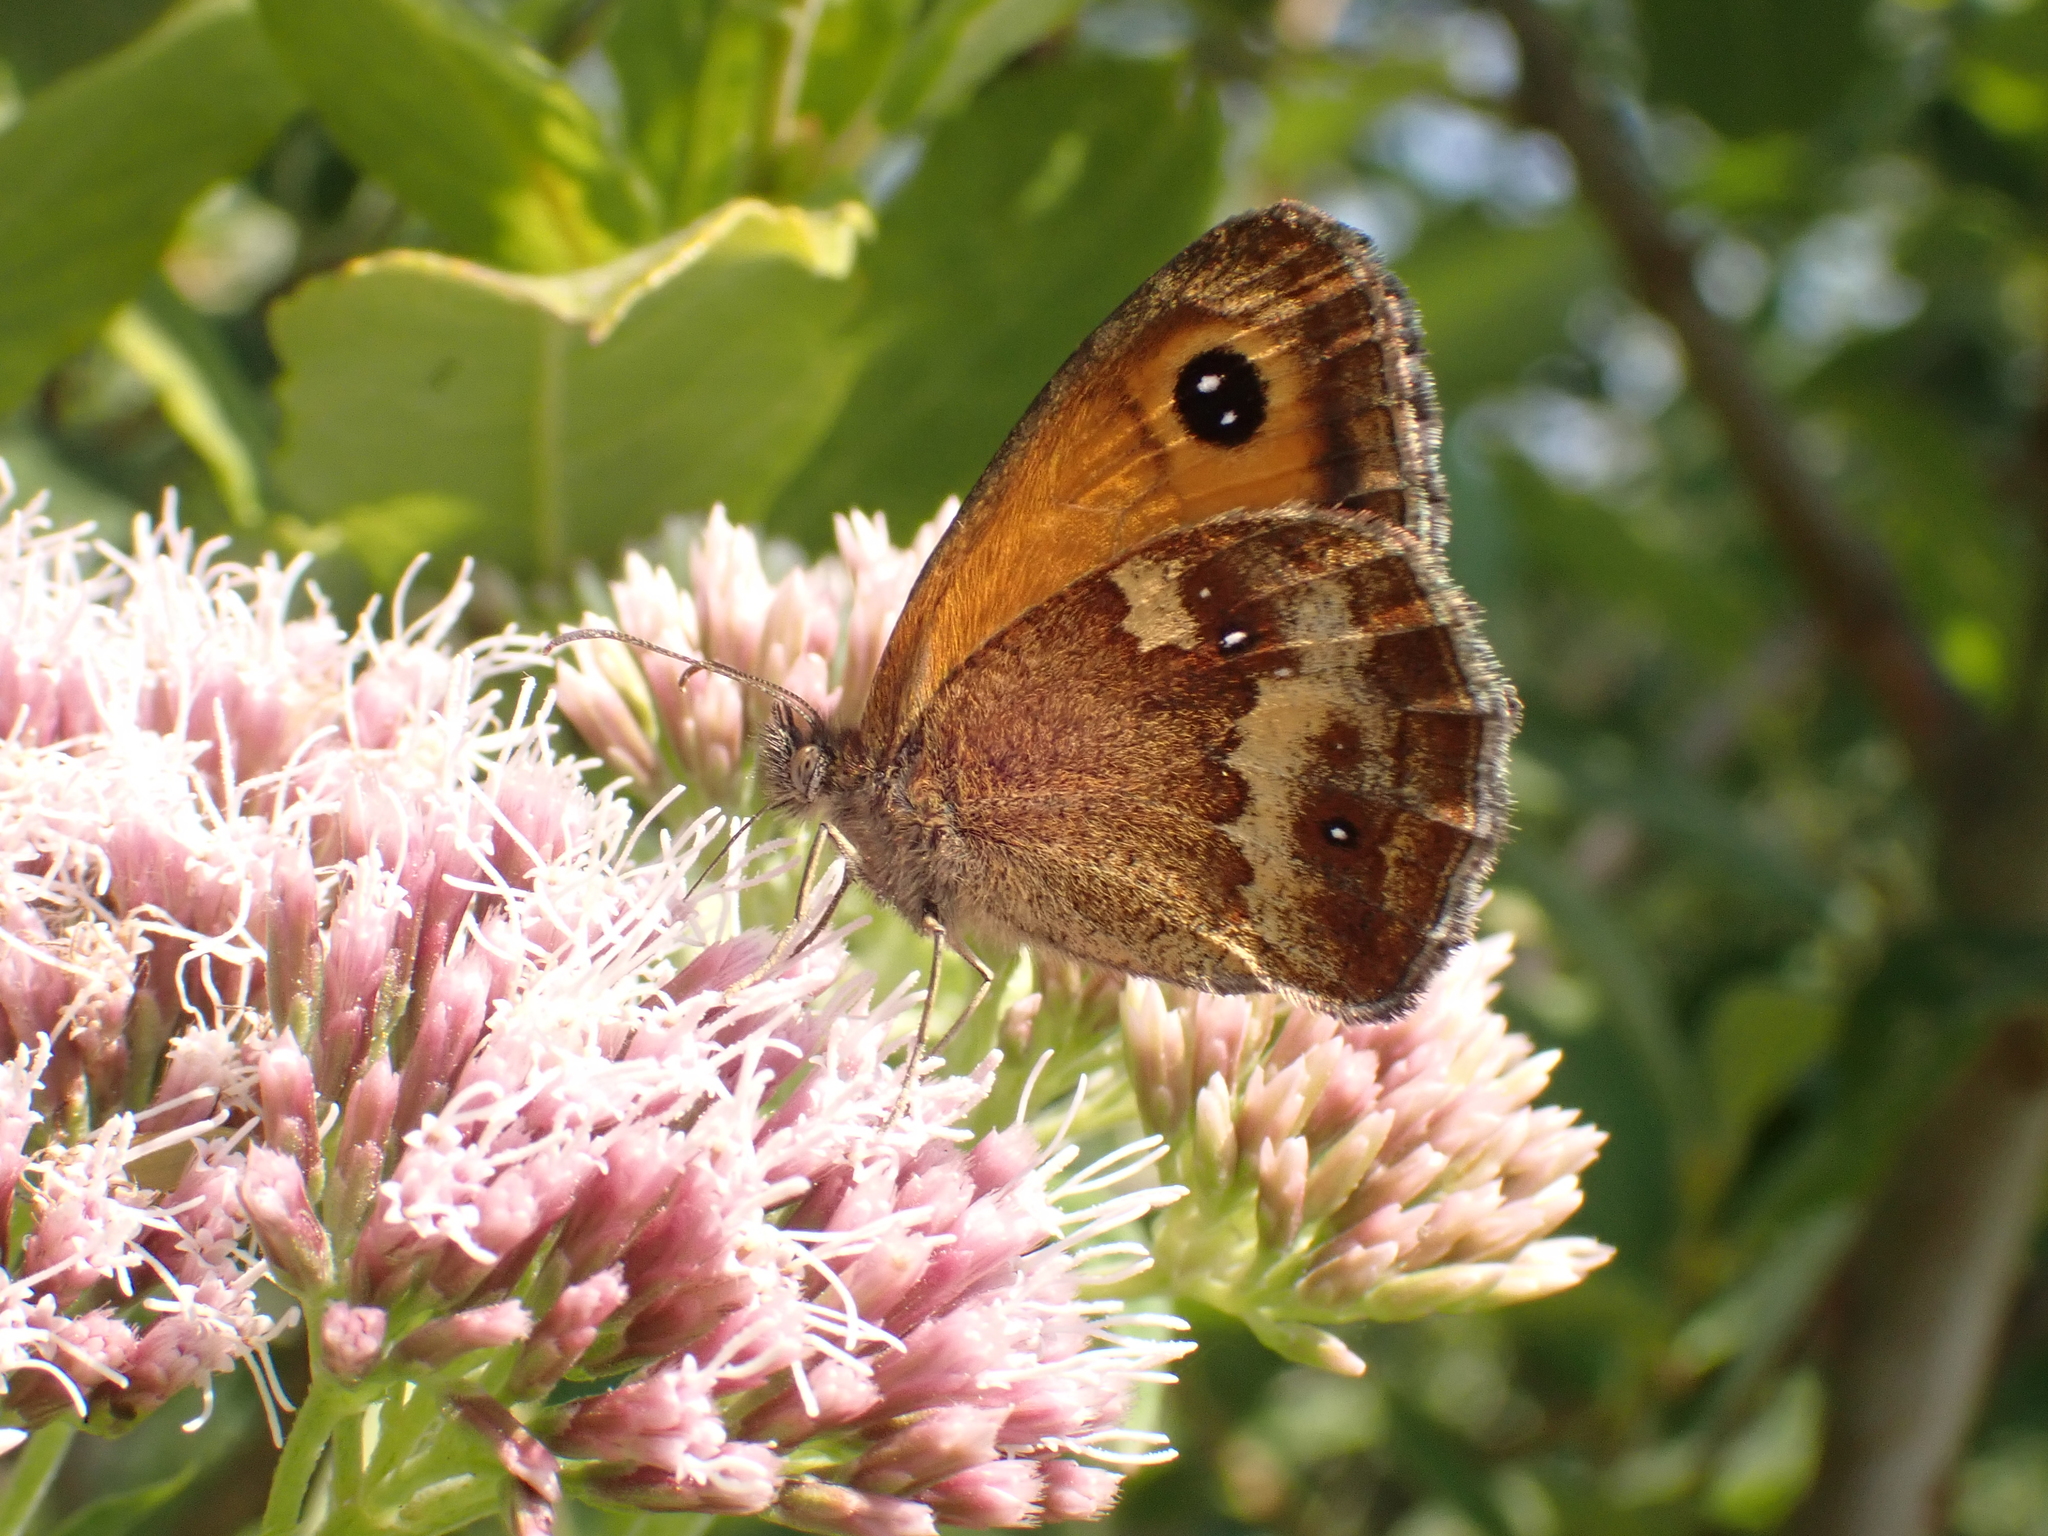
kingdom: Animalia
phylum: Arthropoda
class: Insecta
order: Lepidoptera
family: Nymphalidae
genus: Pyronia
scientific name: Pyronia tithonus
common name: Gatekeeper
